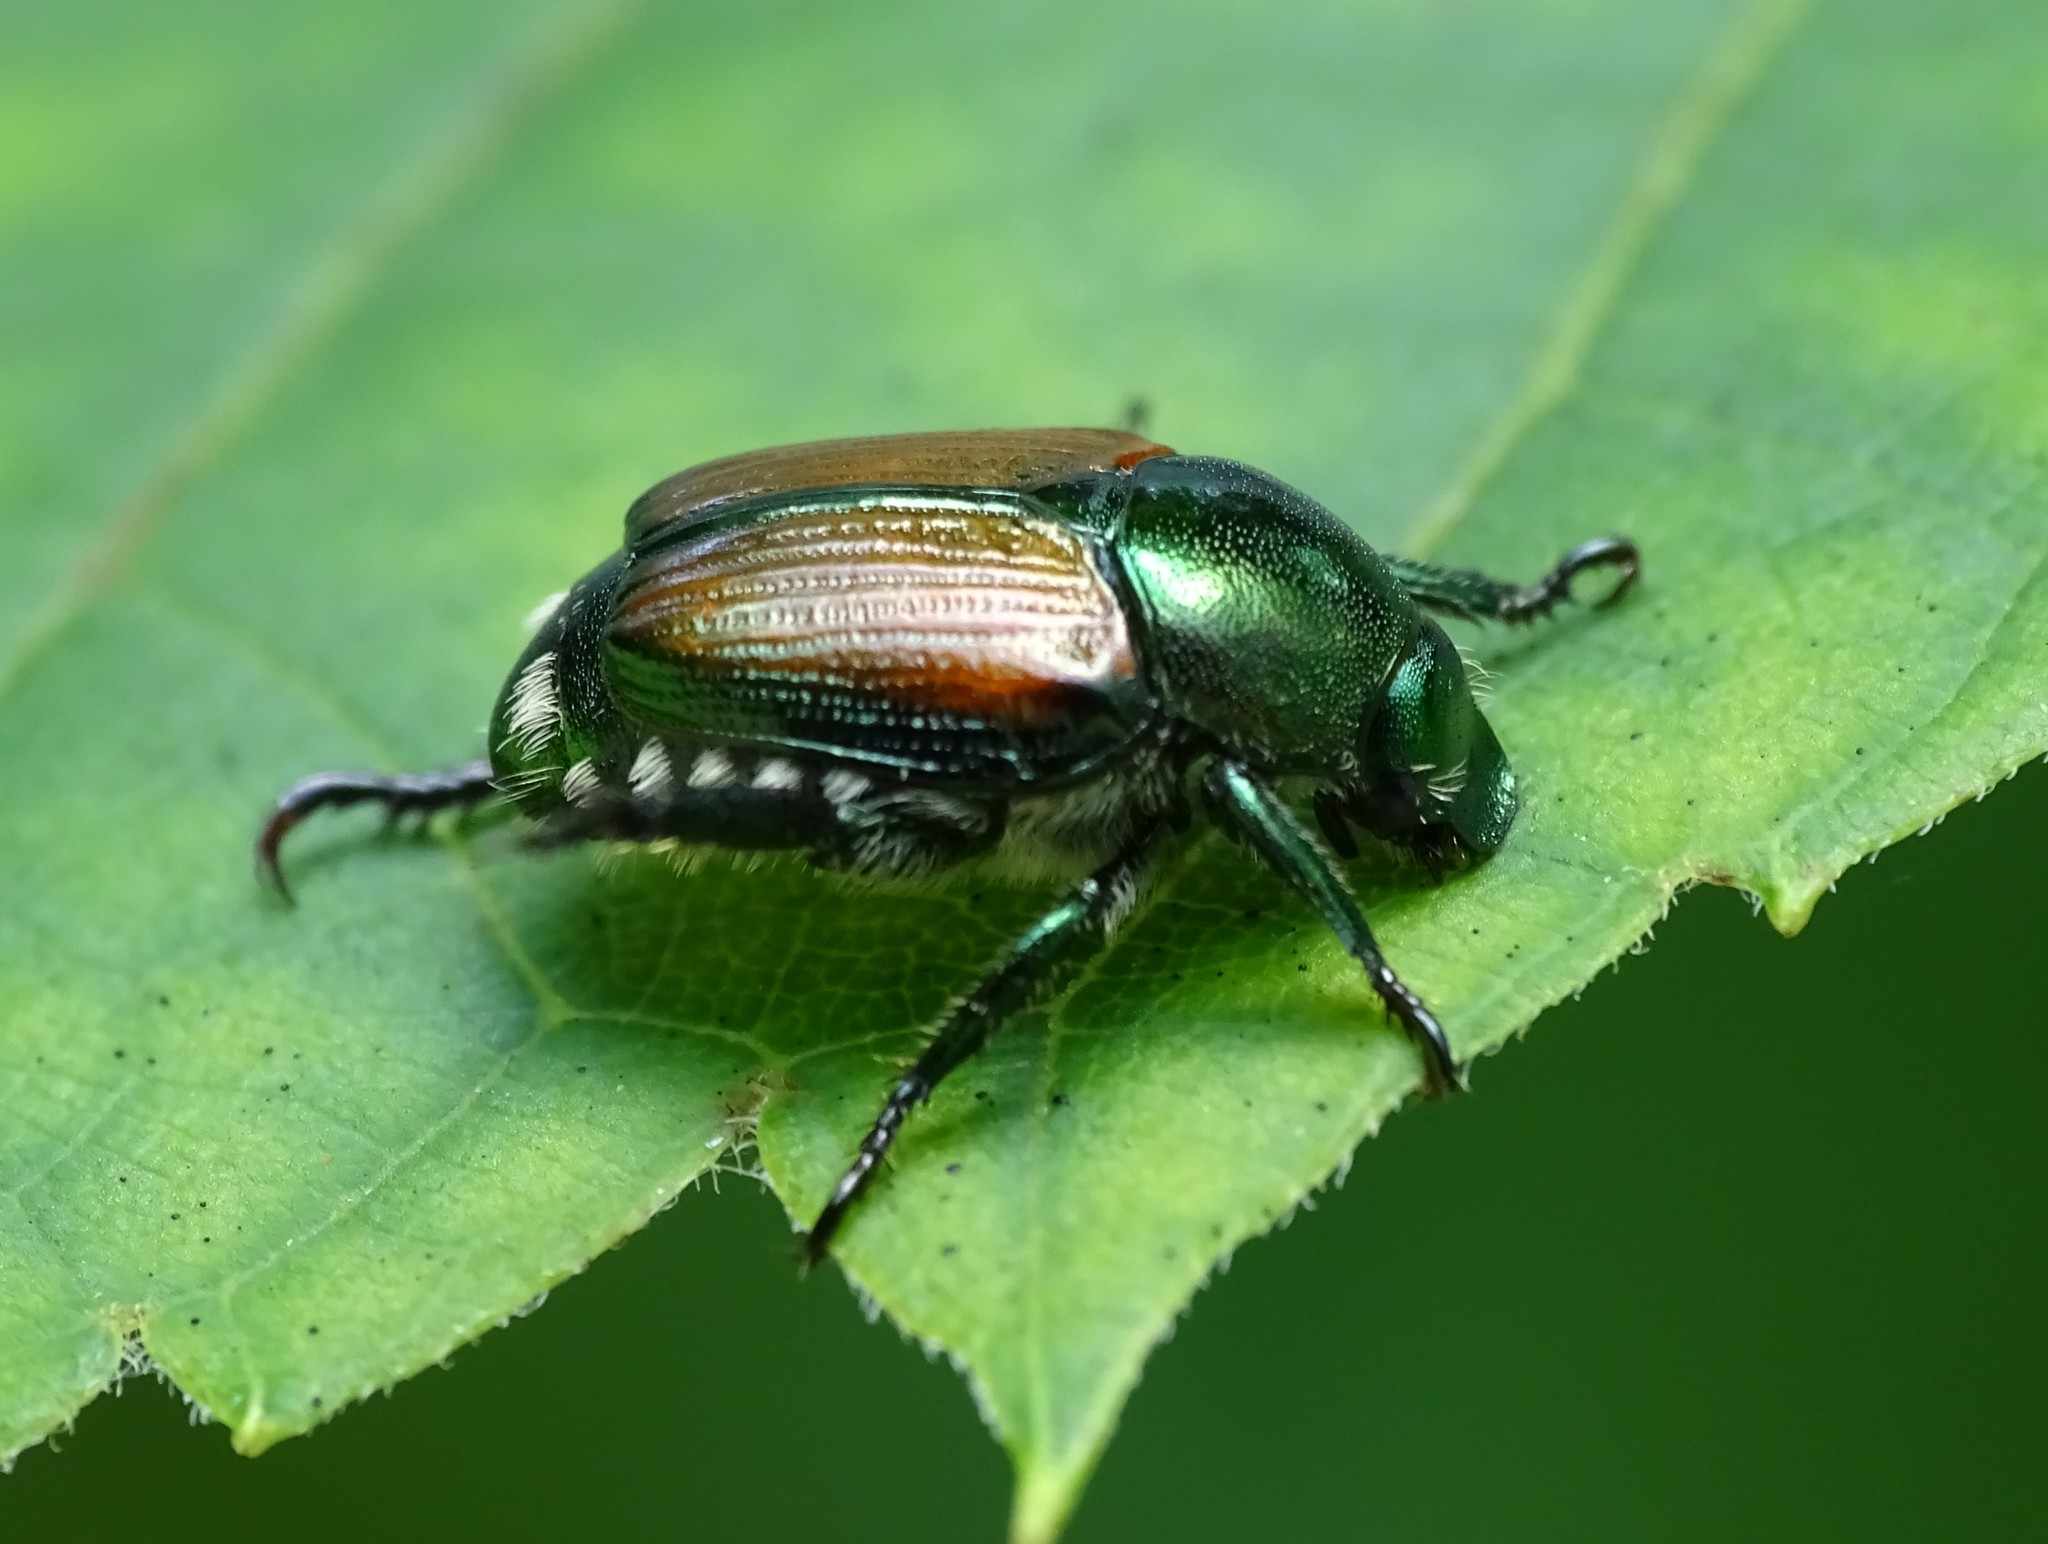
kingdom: Animalia
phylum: Arthropoda
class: Insecta
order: Coleoptera
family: Scarabaeidae
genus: Popillia
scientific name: Popillia japonica
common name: Japanese beetle
